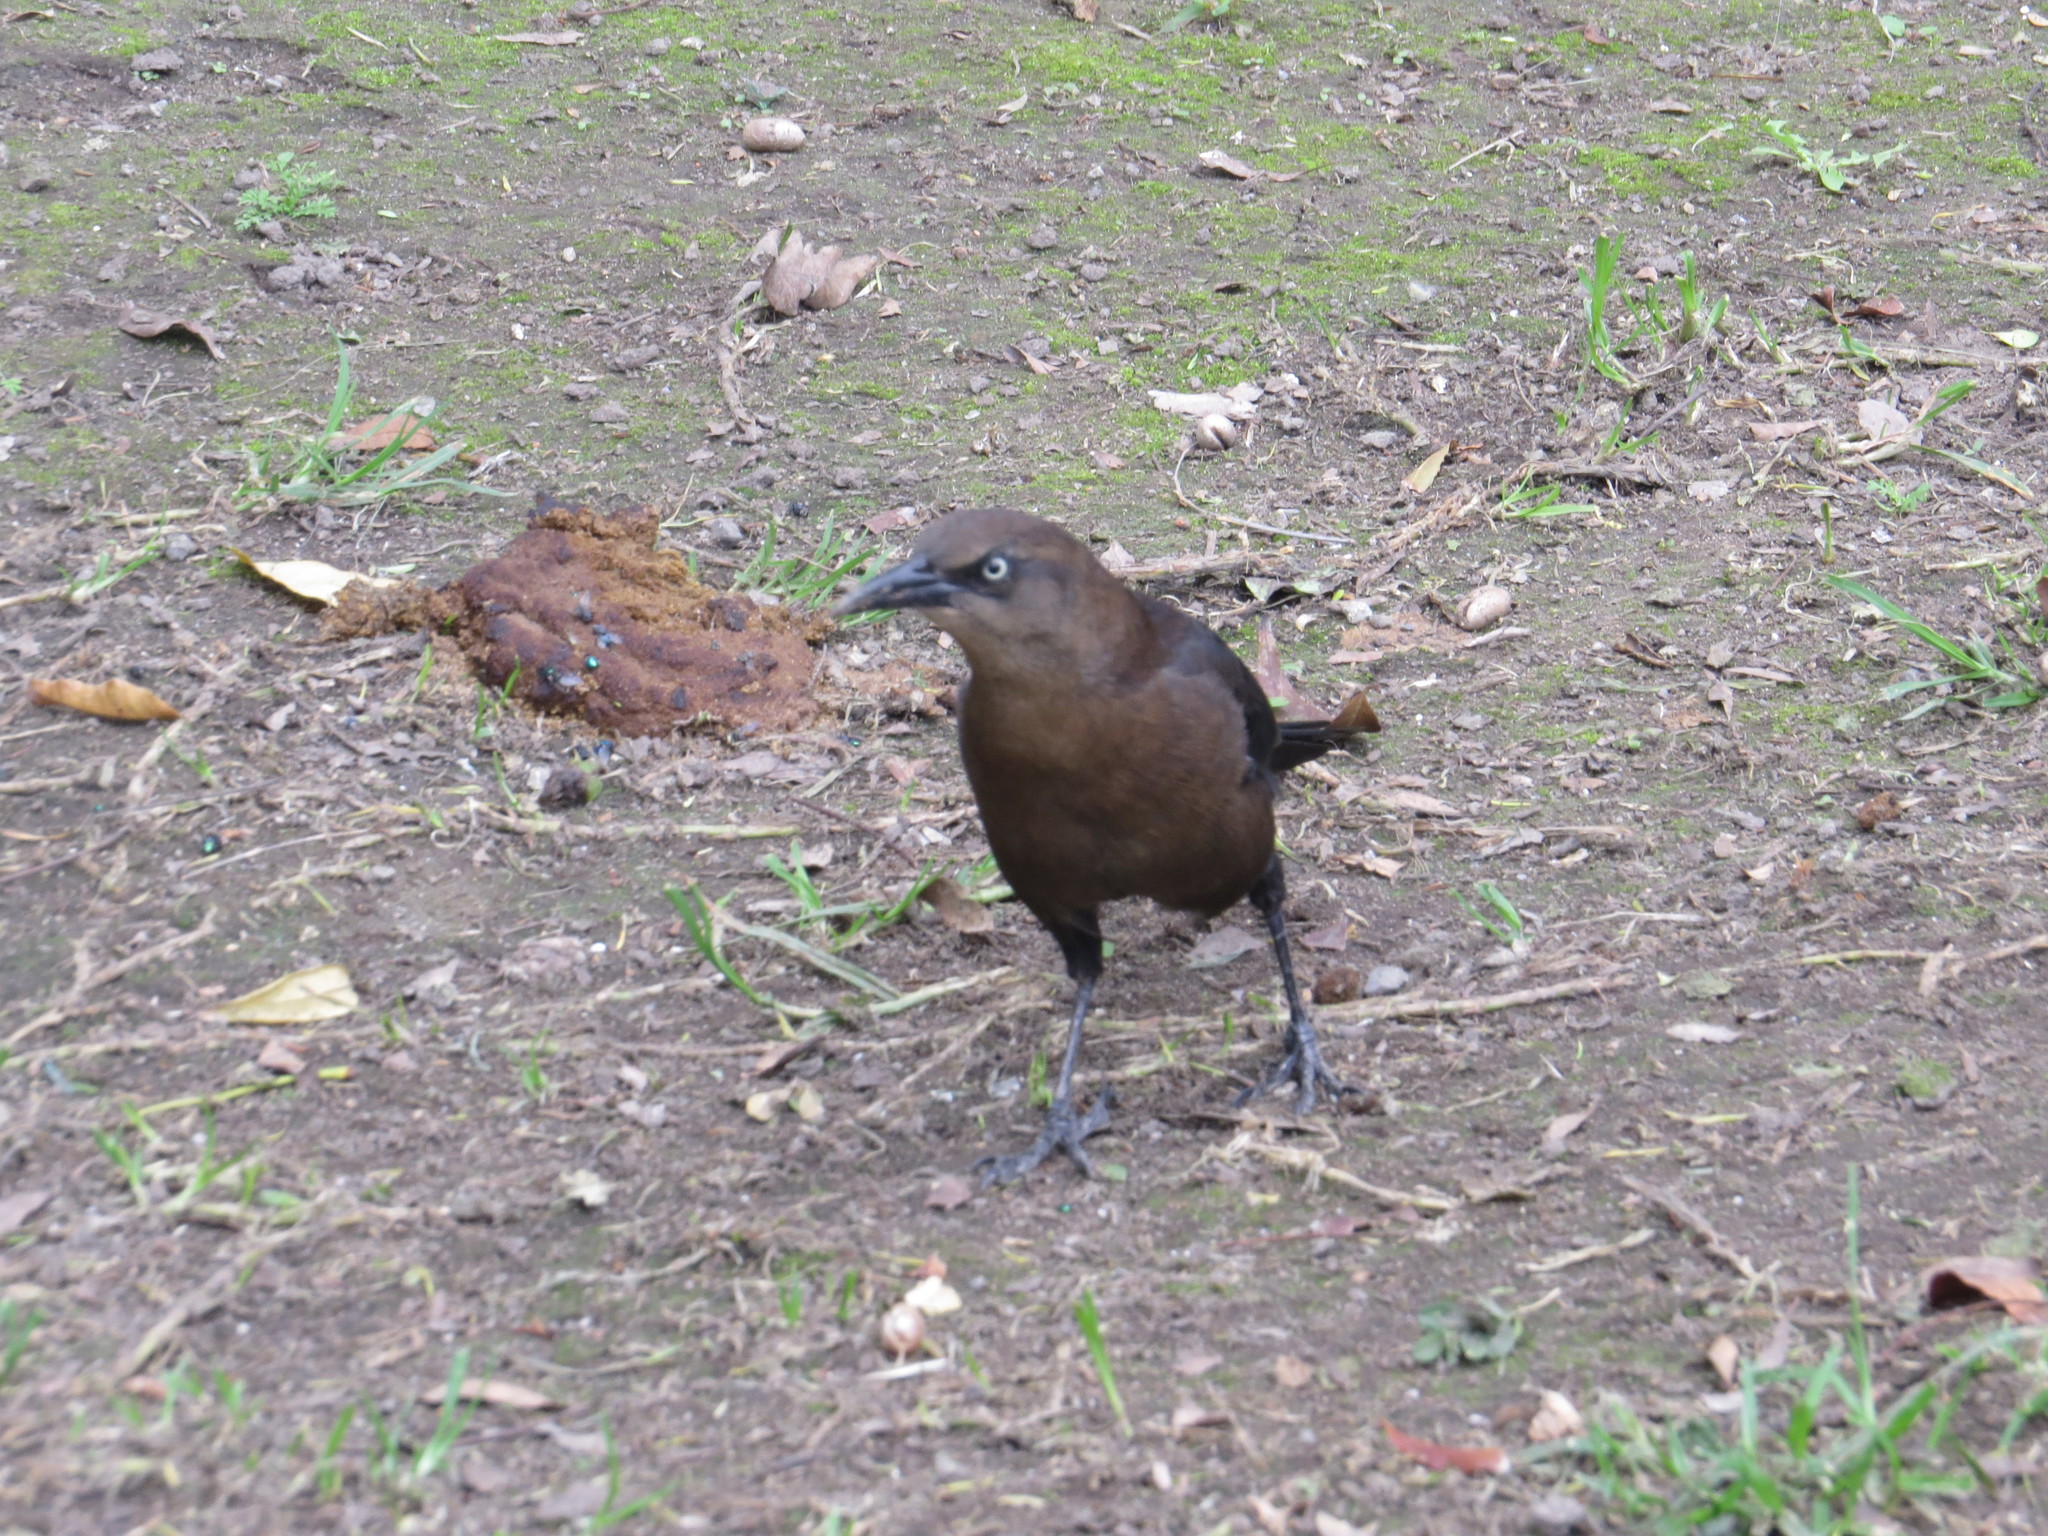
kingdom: Animalia
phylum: Chordata
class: Aves
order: Passeriformes
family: Icteridae
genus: Quiscalus
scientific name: Quiscalus mexicanus
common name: Great-tailed grackle
